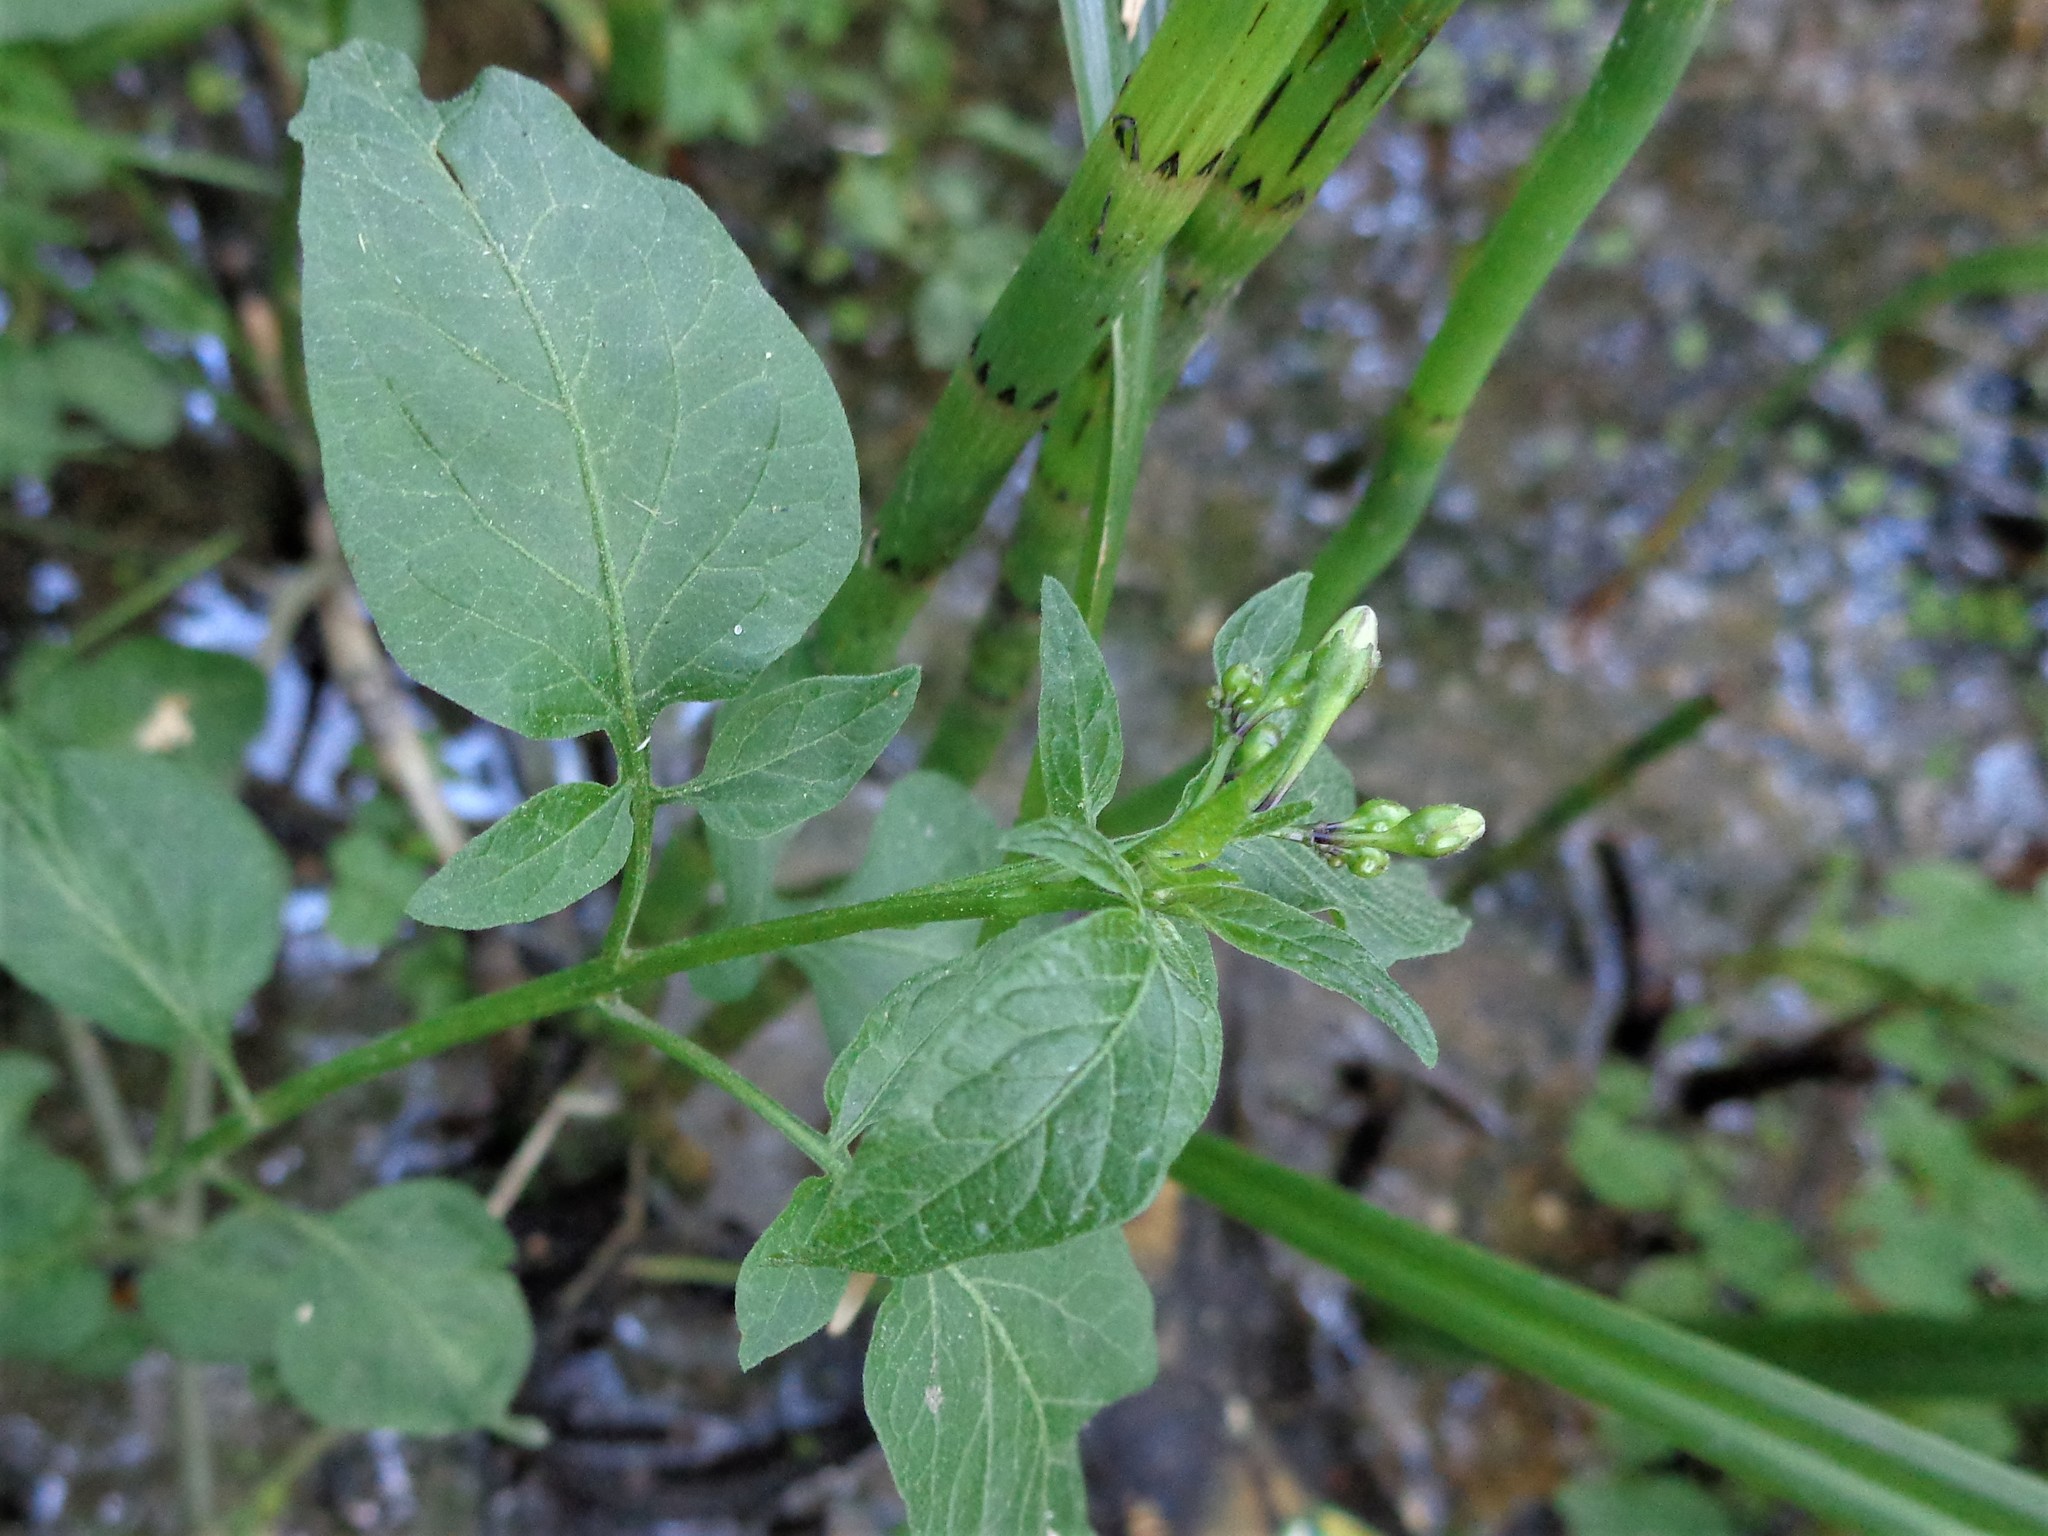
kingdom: Plantae
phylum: Tracheophyta
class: Magnoliopsida
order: Solanales
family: Solanaceae
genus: Solanum
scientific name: Solanum dulcamara
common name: Climbing nightshade
